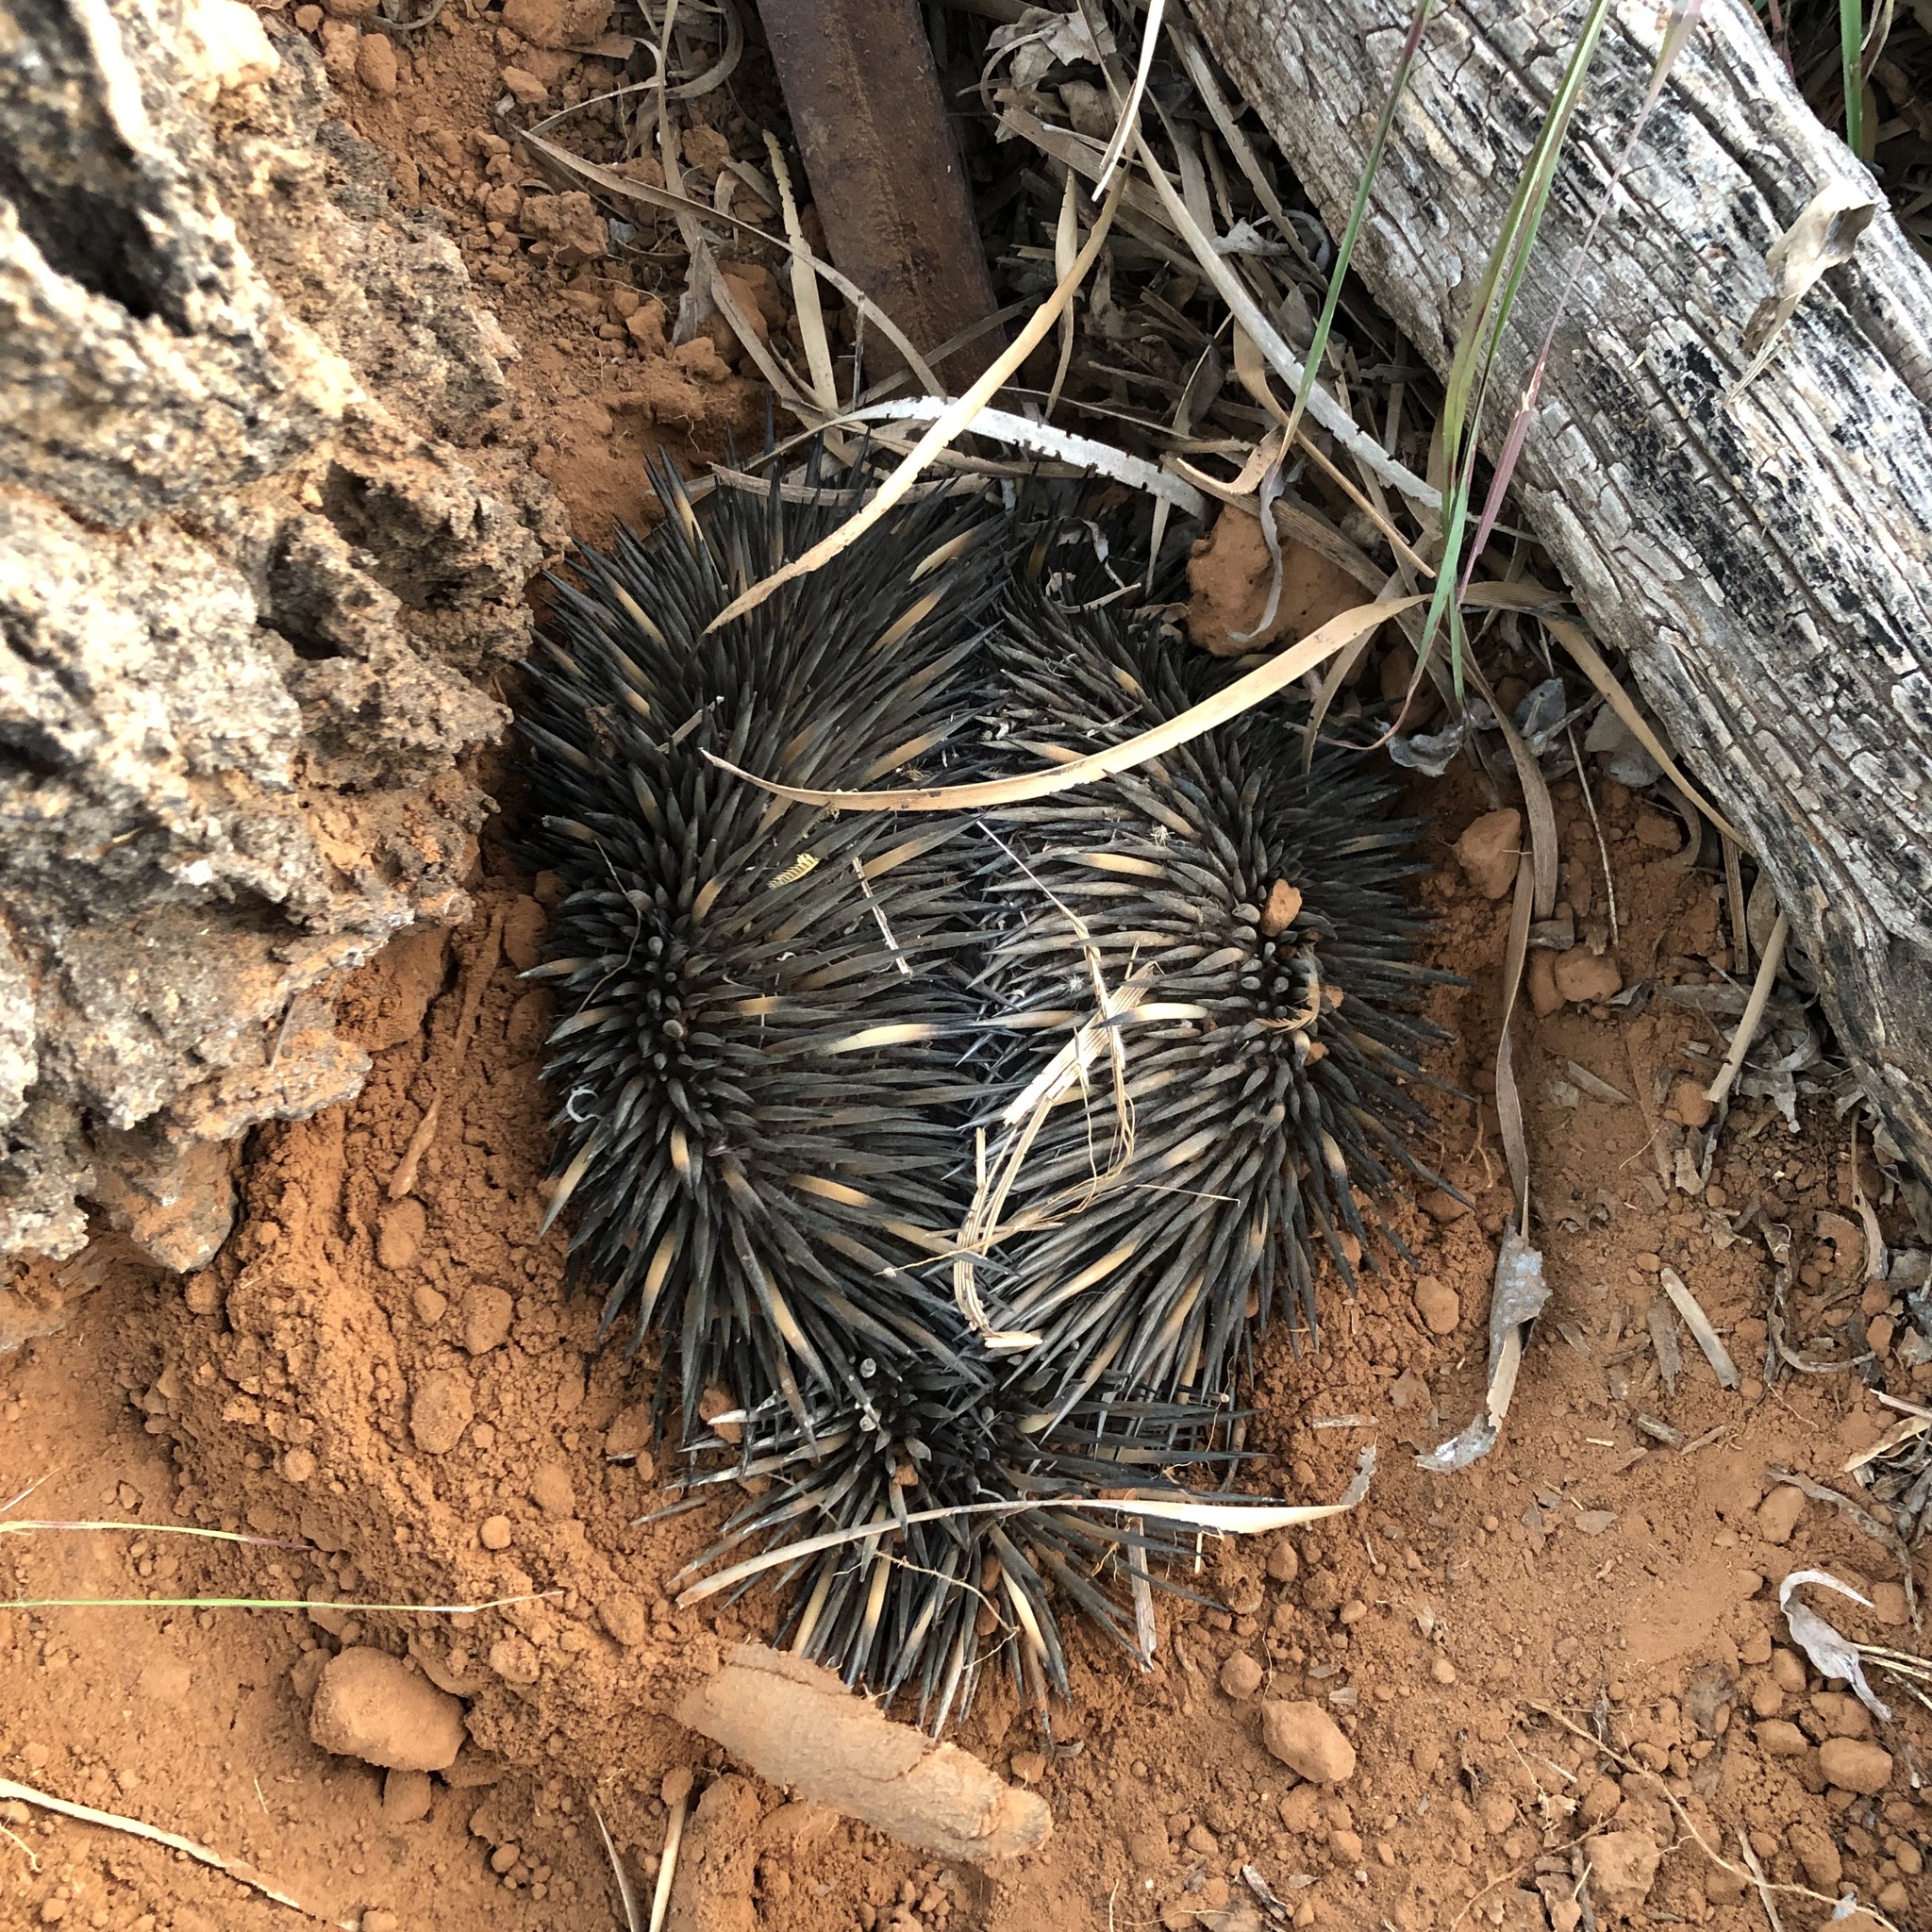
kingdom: Animalia
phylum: Chordata
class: Mammalia
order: Monotremata
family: Tachyglossidae
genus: Tachyglossus
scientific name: Tachyglossus aculeatus
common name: Short-beaked echidna
